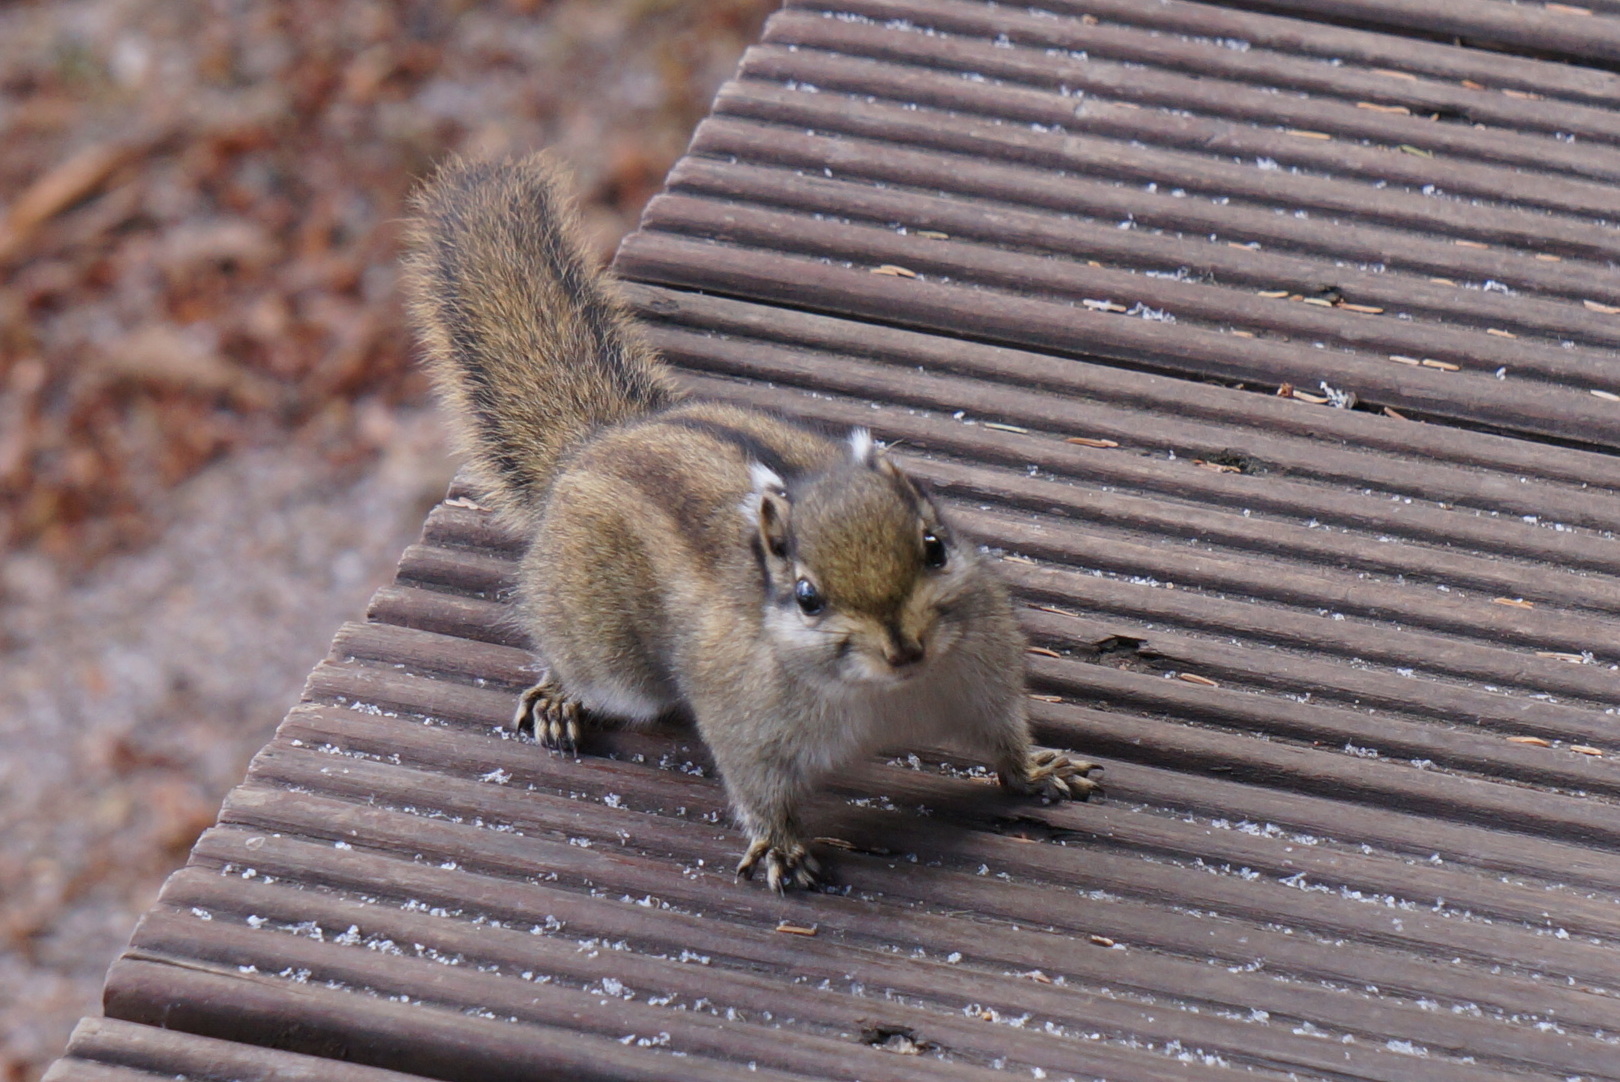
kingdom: Animalia
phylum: Chordata
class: Mammalia
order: Rodentia
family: Sciuridae
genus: Tamiops
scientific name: Tamiops swinhoei
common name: Swinhoe's striped squirrel
